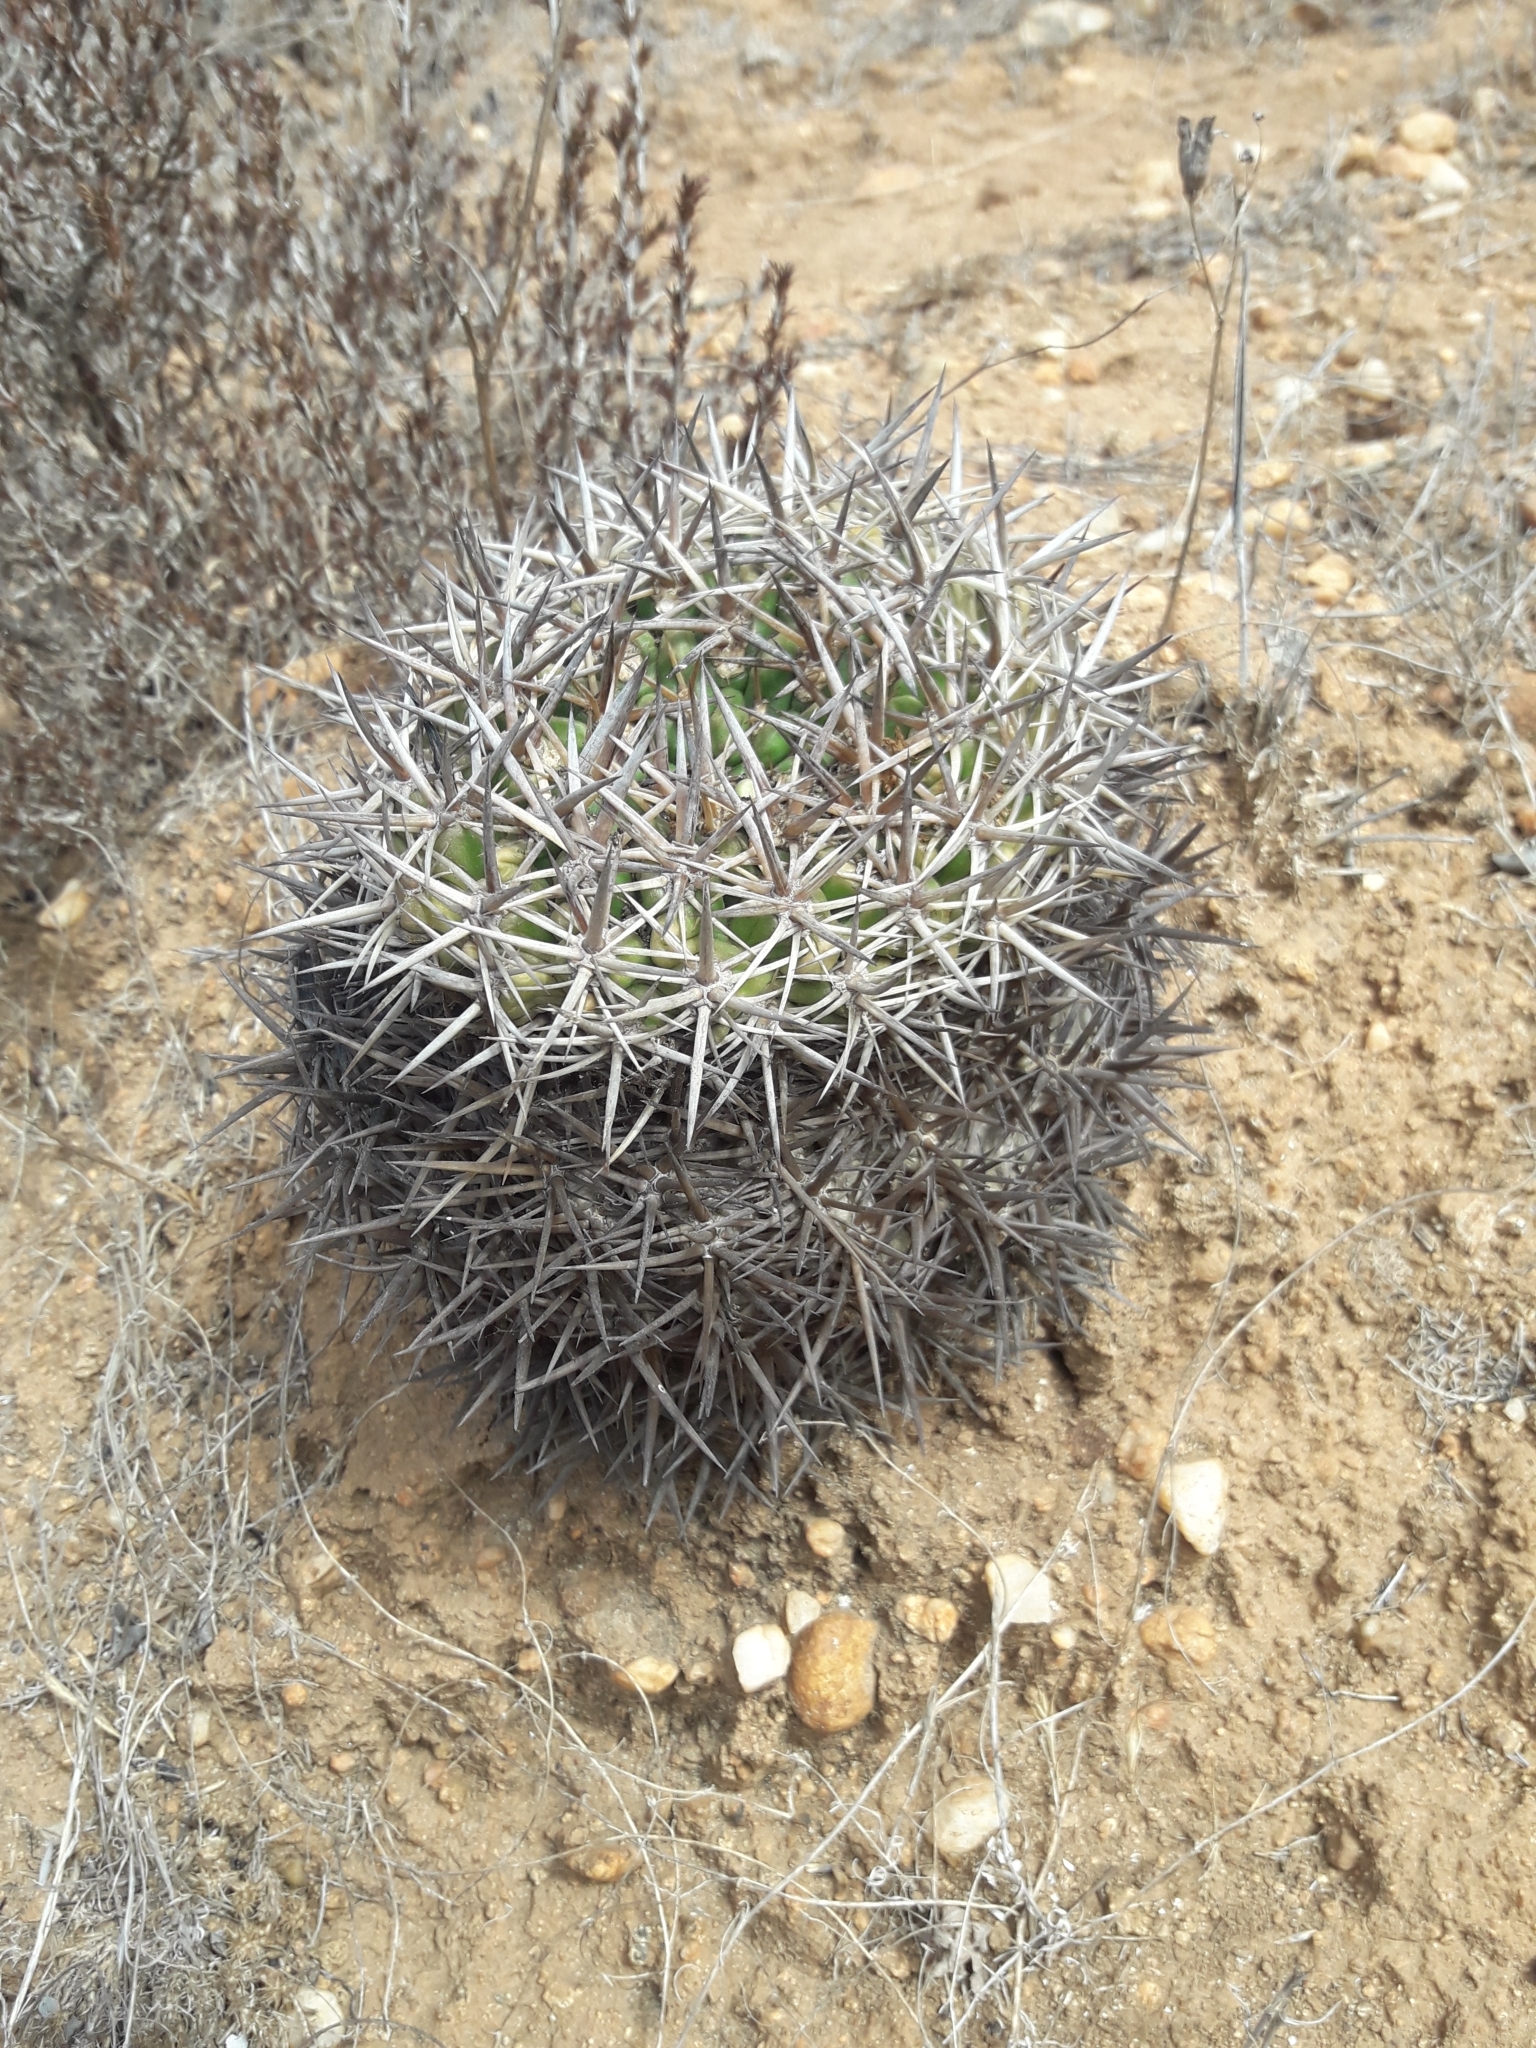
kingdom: Plantae
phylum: Tracheophyta
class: Magnoliopsida
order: Caryophyllales
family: Cactaceae
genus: Eriosyce
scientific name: Eriosyce
